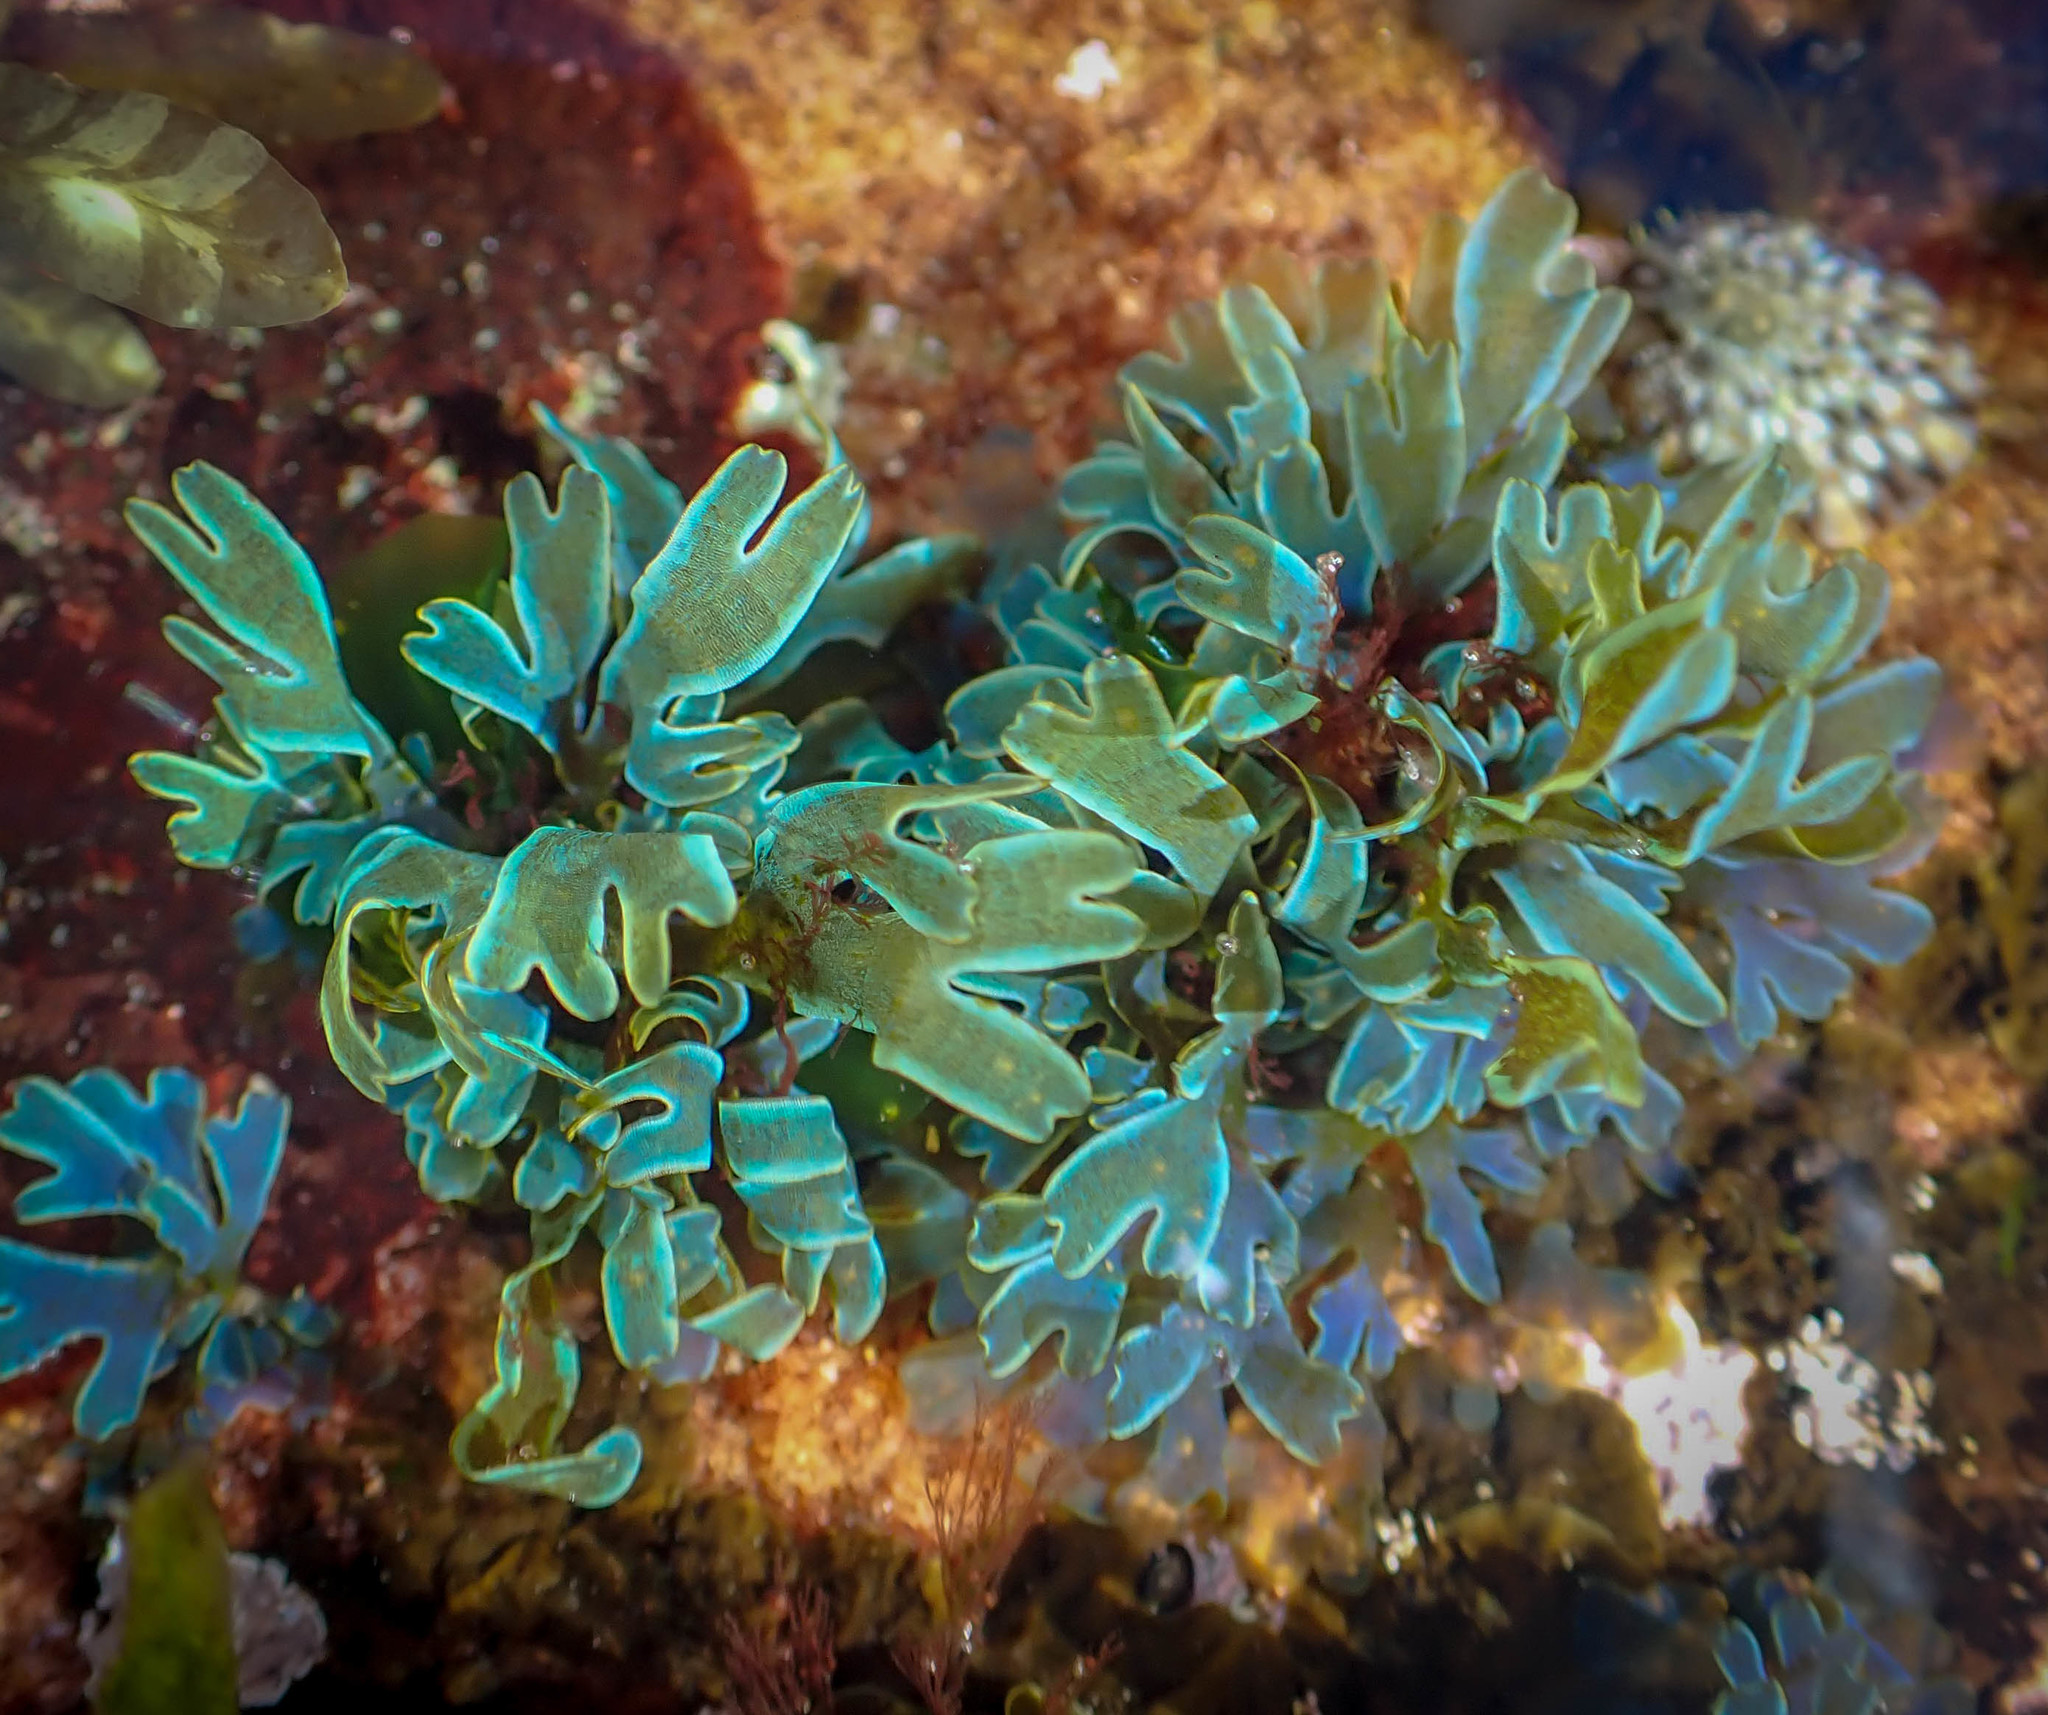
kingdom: Chromista
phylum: Ochrophyta
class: Phaeophyceae
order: Dictyotales
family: Dictyotaceae
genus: Dictyota
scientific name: Dictyota cyanoloma
